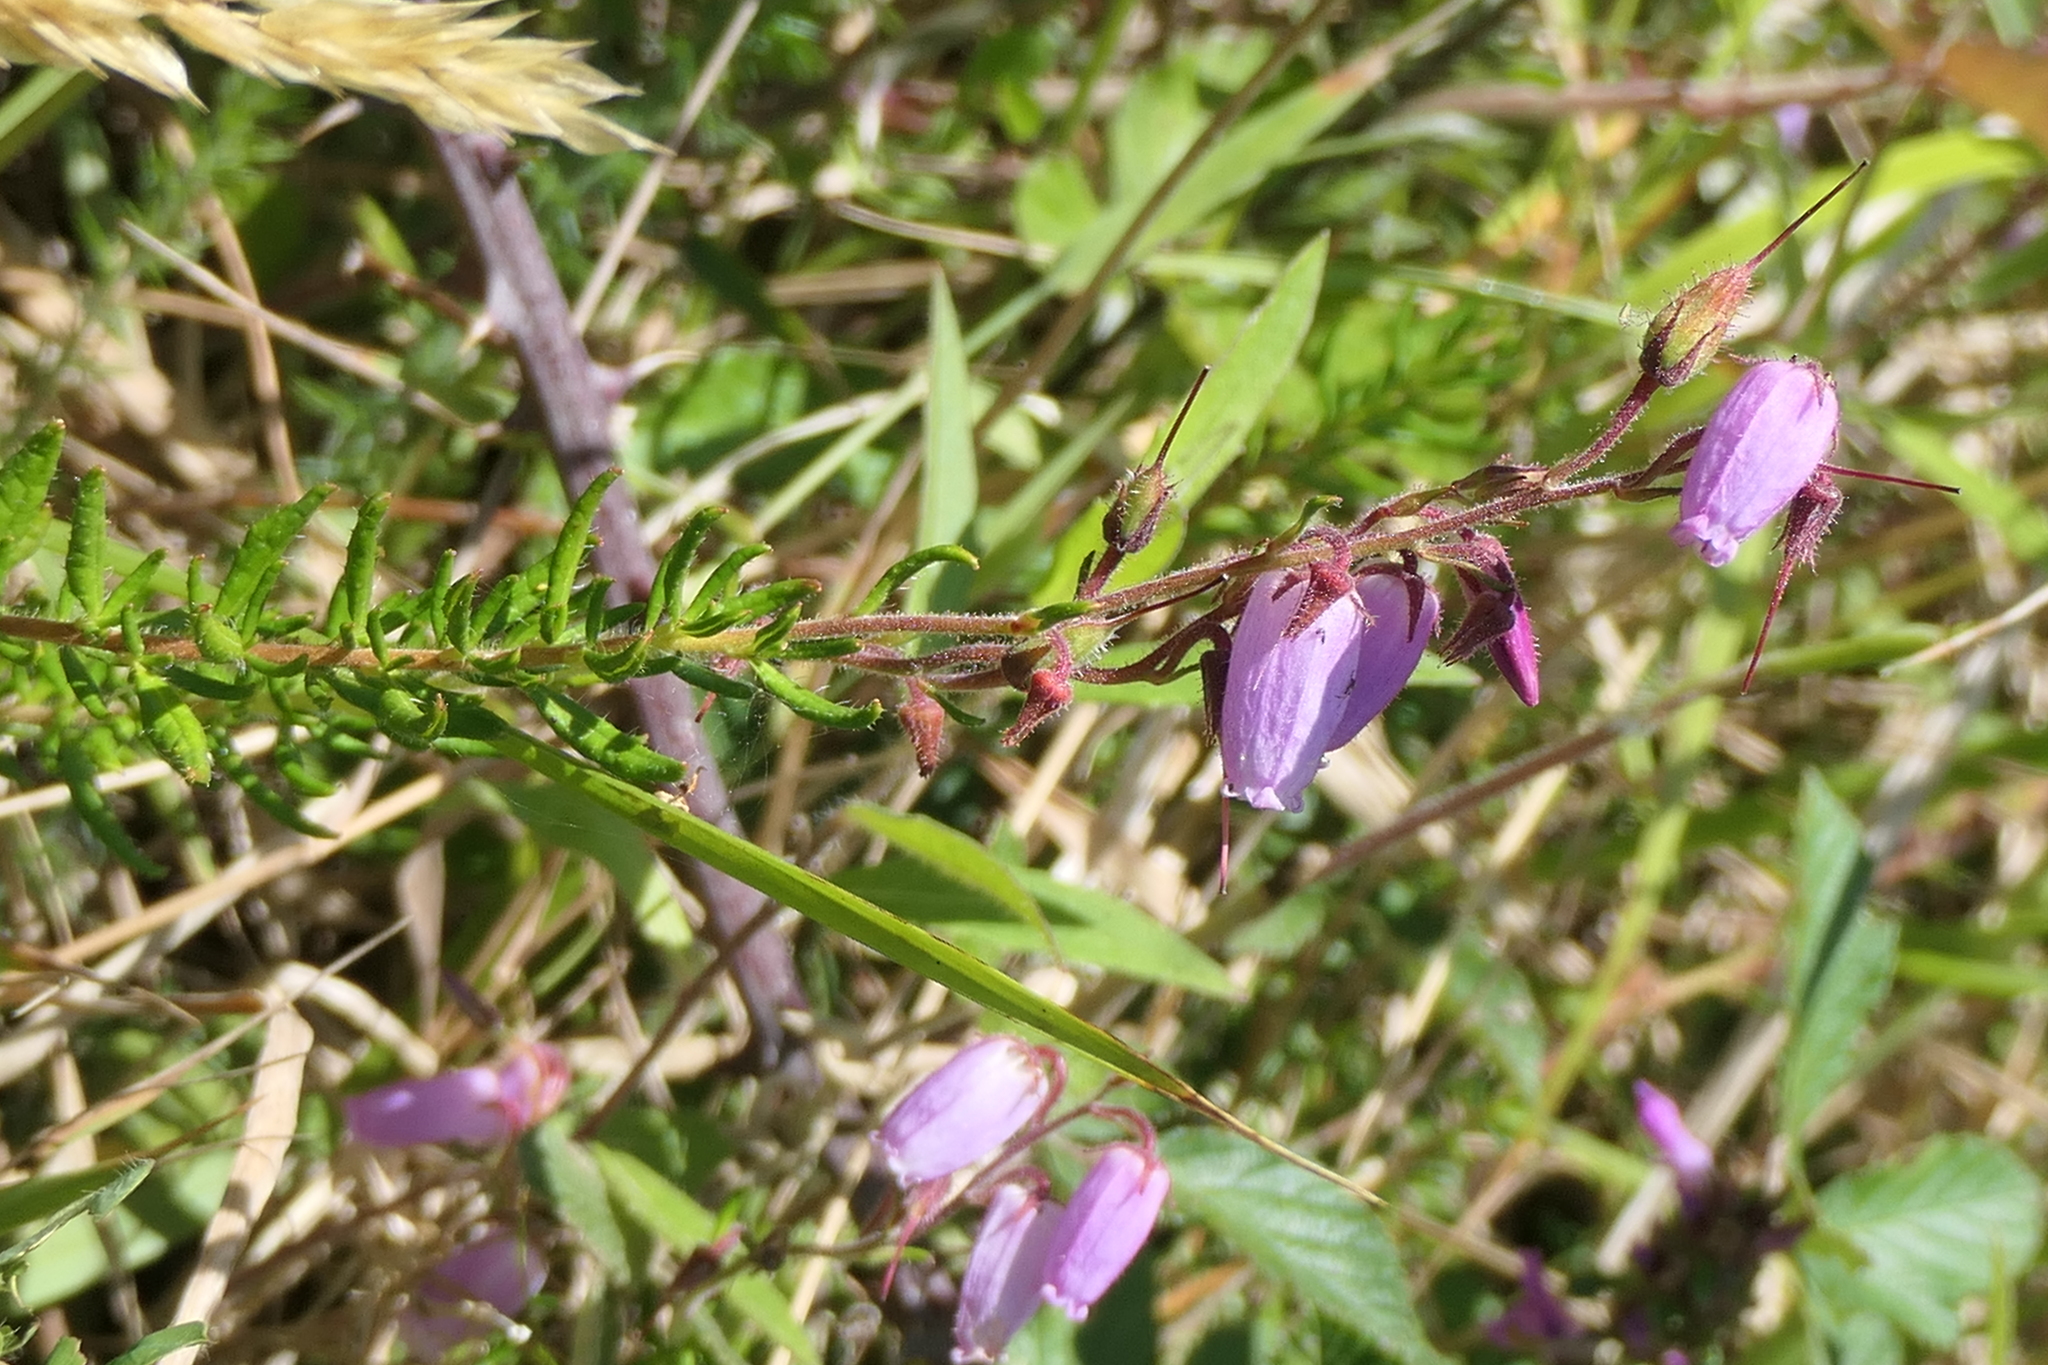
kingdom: Plantae
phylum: Tracheophyta
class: Magnoliopsida
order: Ericales
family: Ericaceae
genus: Daboecia
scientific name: Daboecia cantabrica
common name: St. dabeoc's-heath
